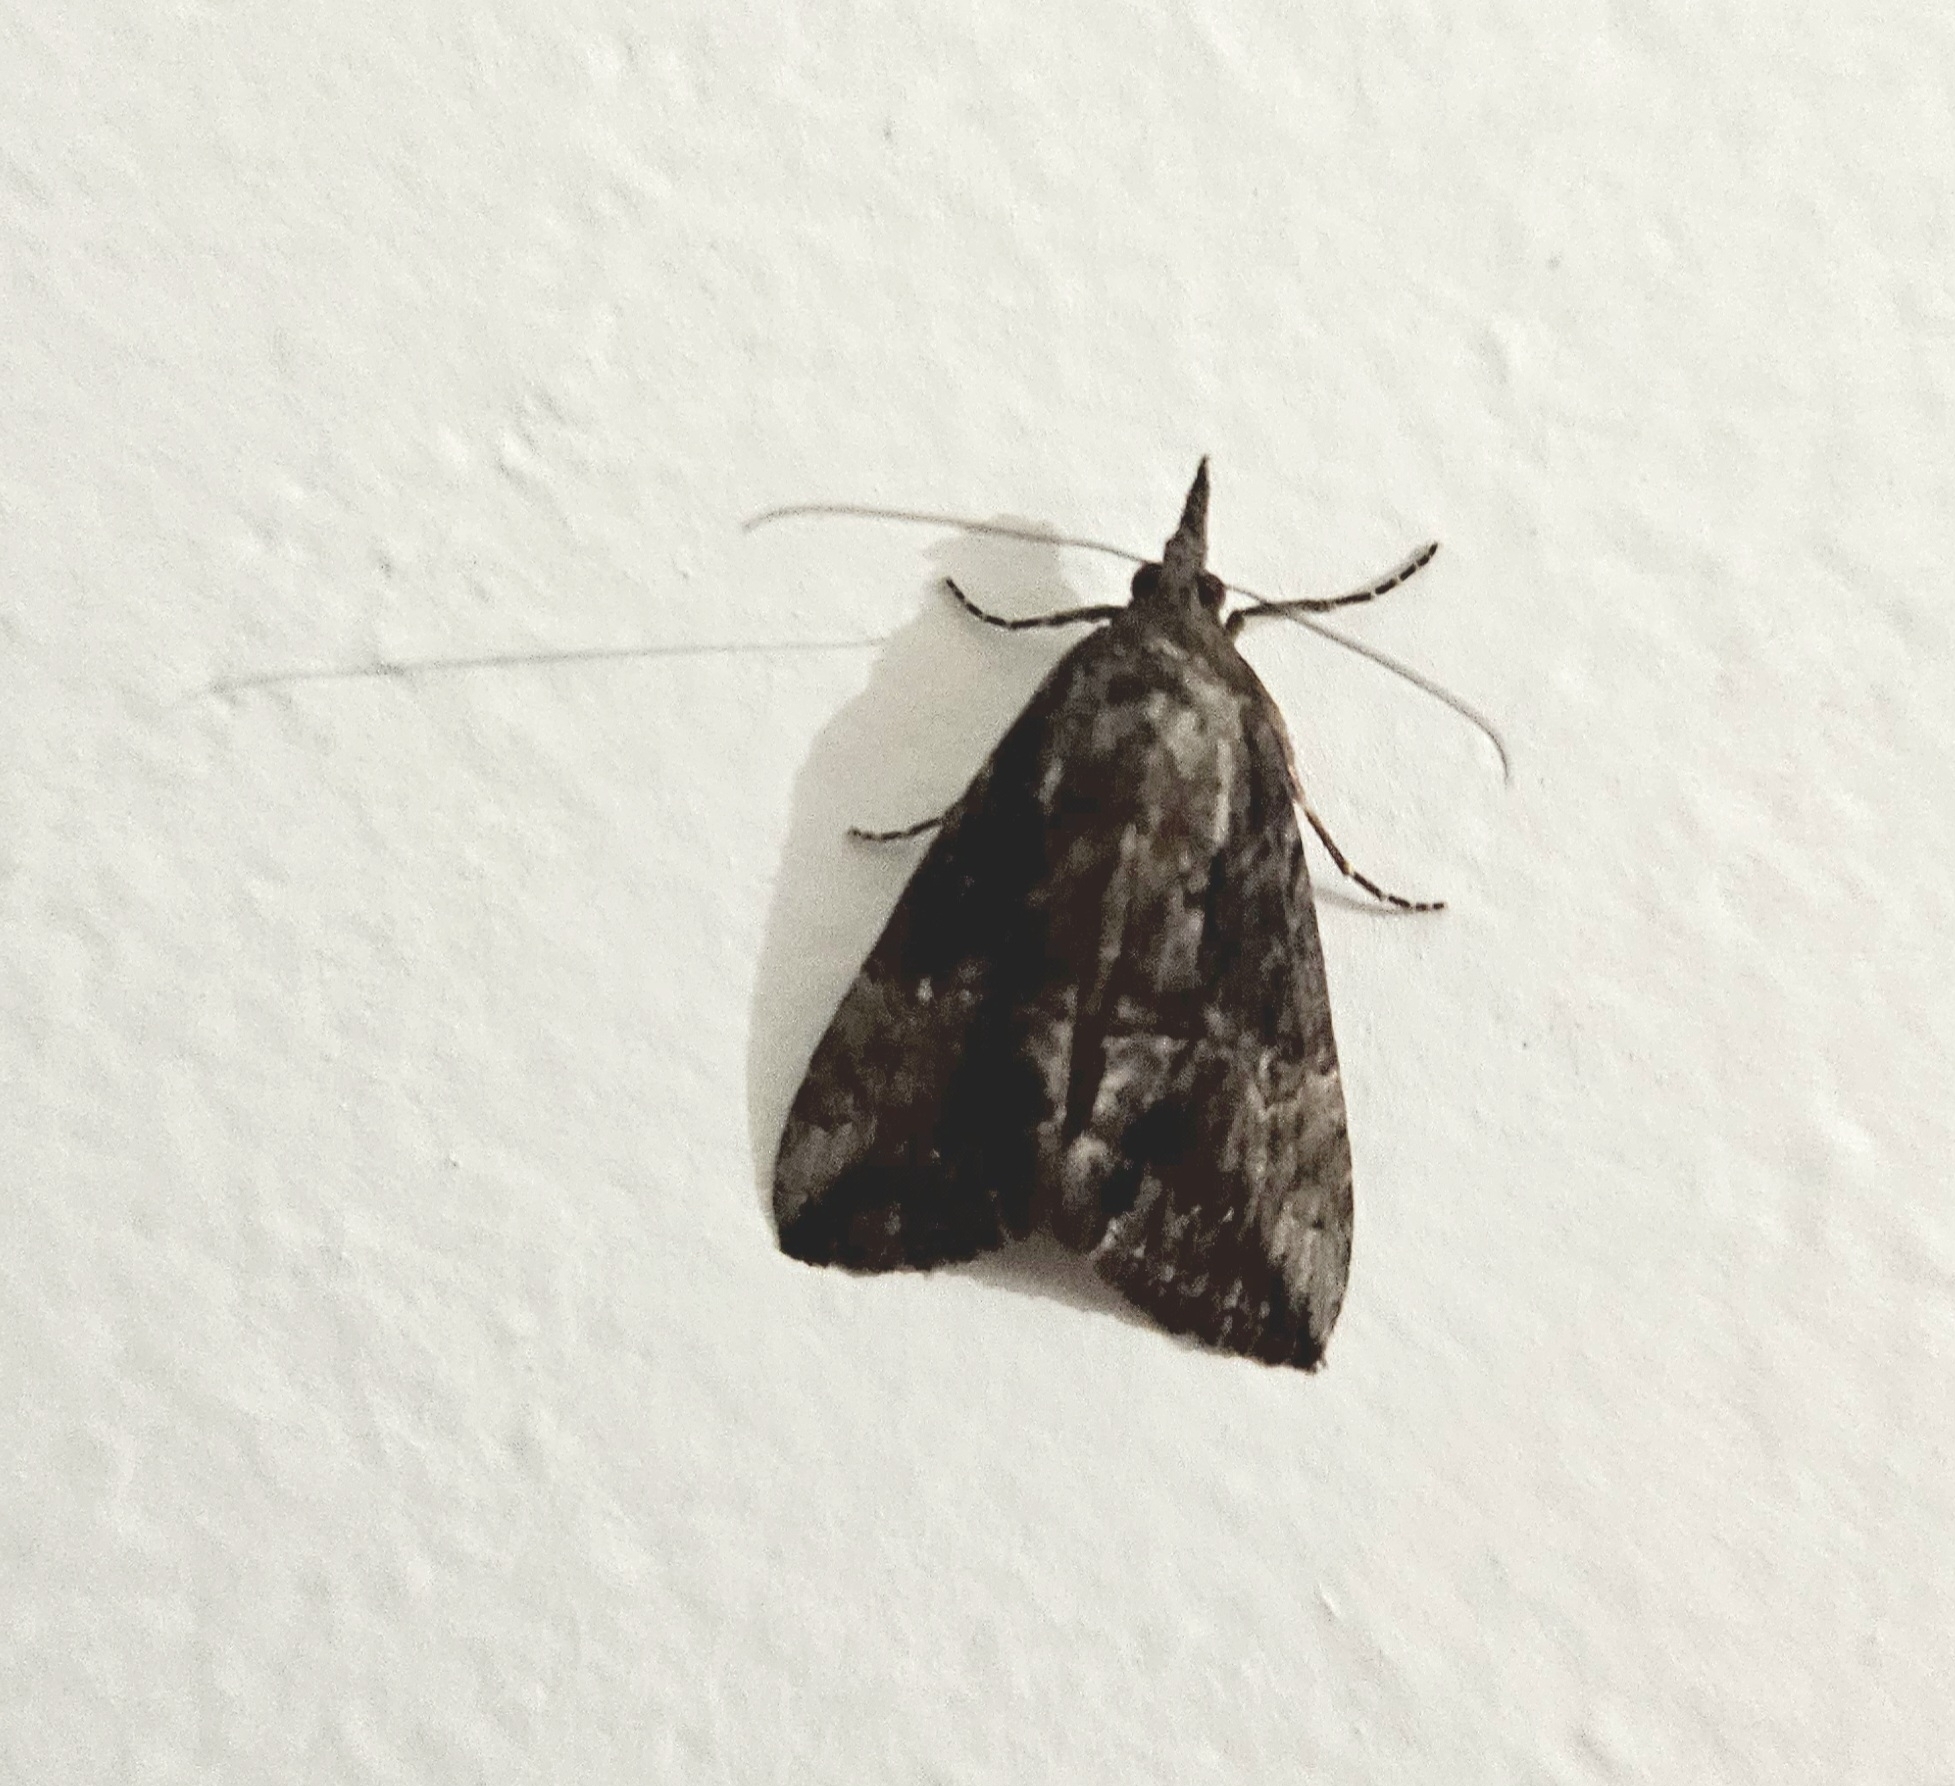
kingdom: Animalia
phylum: Arthropoda
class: Insecta
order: Lepidoptera
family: Erebidae
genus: Hypena
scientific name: Hypena scabra
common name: Green cloverworm
